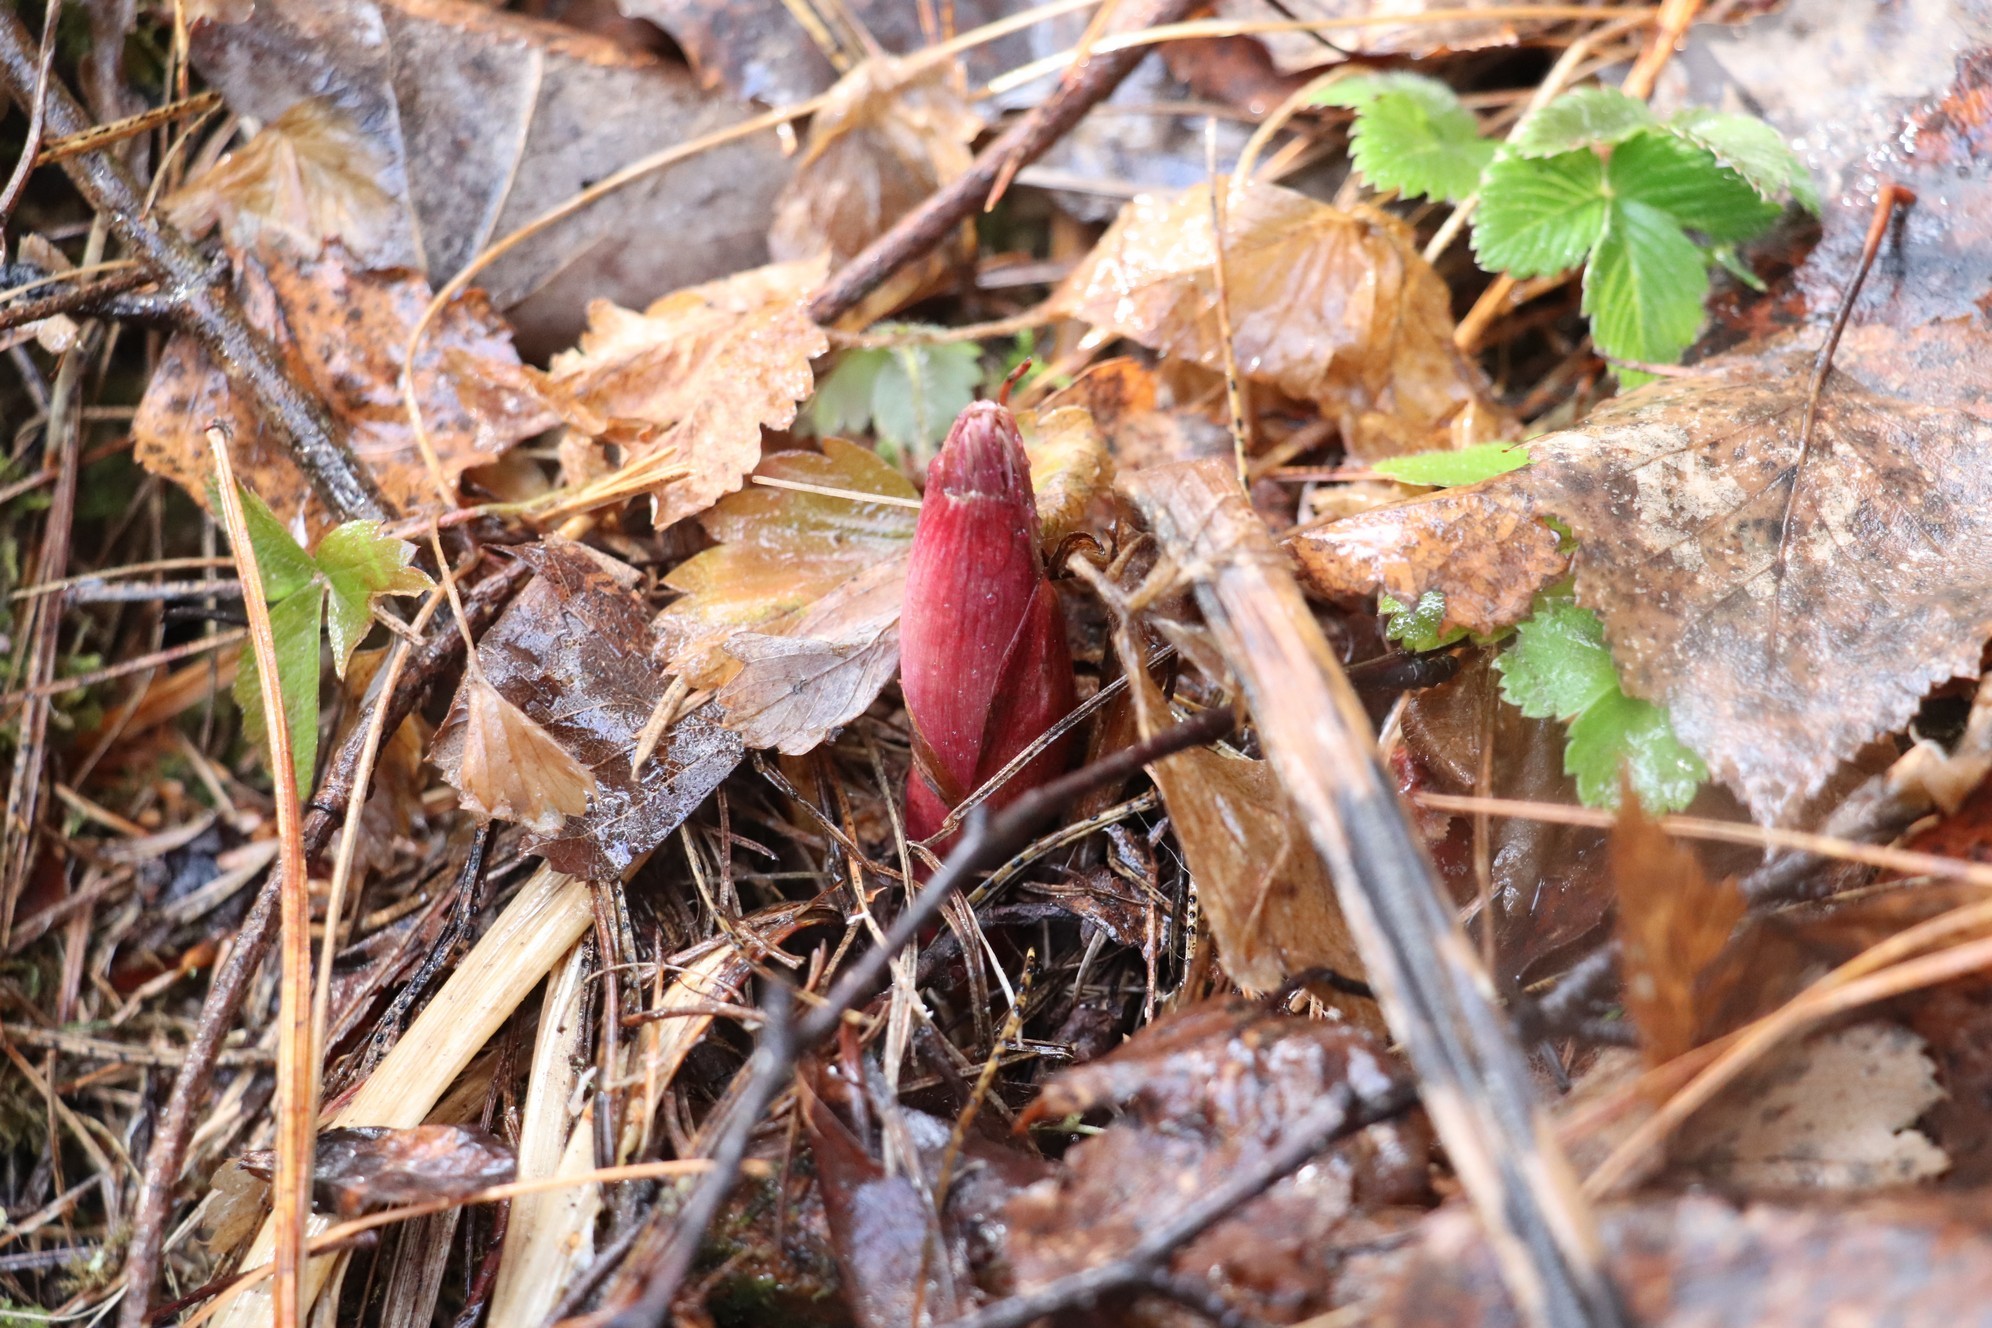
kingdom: Plantae
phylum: Tracheophyta
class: Magnoliopsida
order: Saxifragales
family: Paeoniaceae
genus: Paeonia
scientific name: Paeonia anomala
